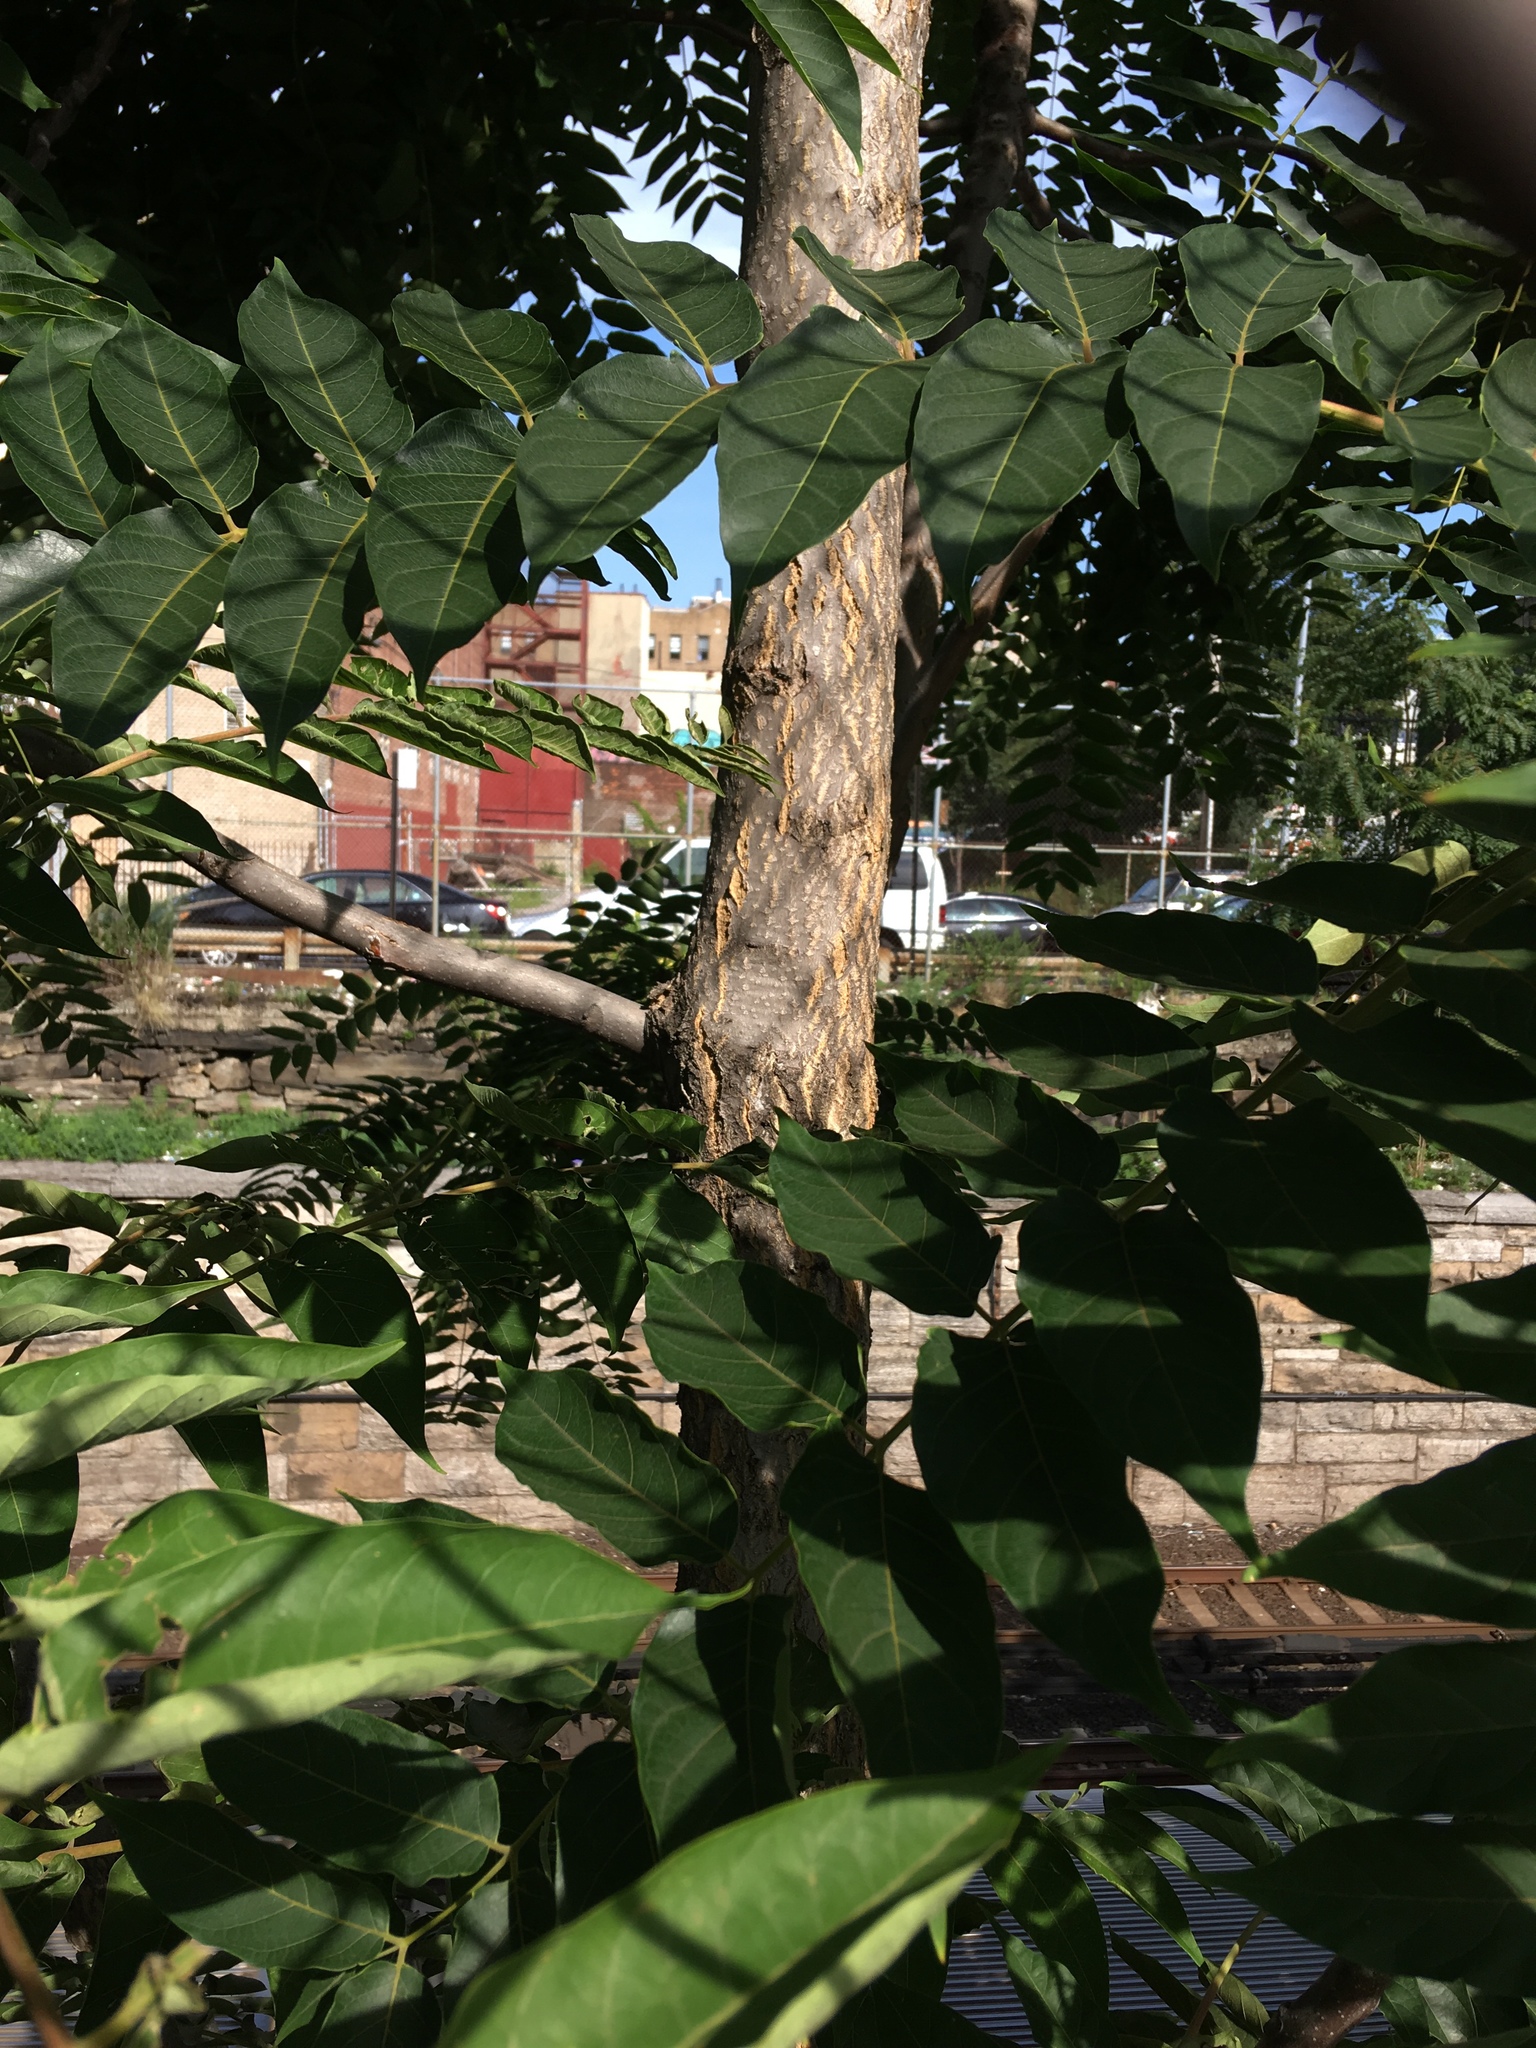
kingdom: Plantae
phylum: Tracheophyta
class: Magnoliopsida
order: Sapindales
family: Simaroubaceae
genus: Ailanthus
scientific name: Ailanthus altissima
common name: Tree-of-heaven
